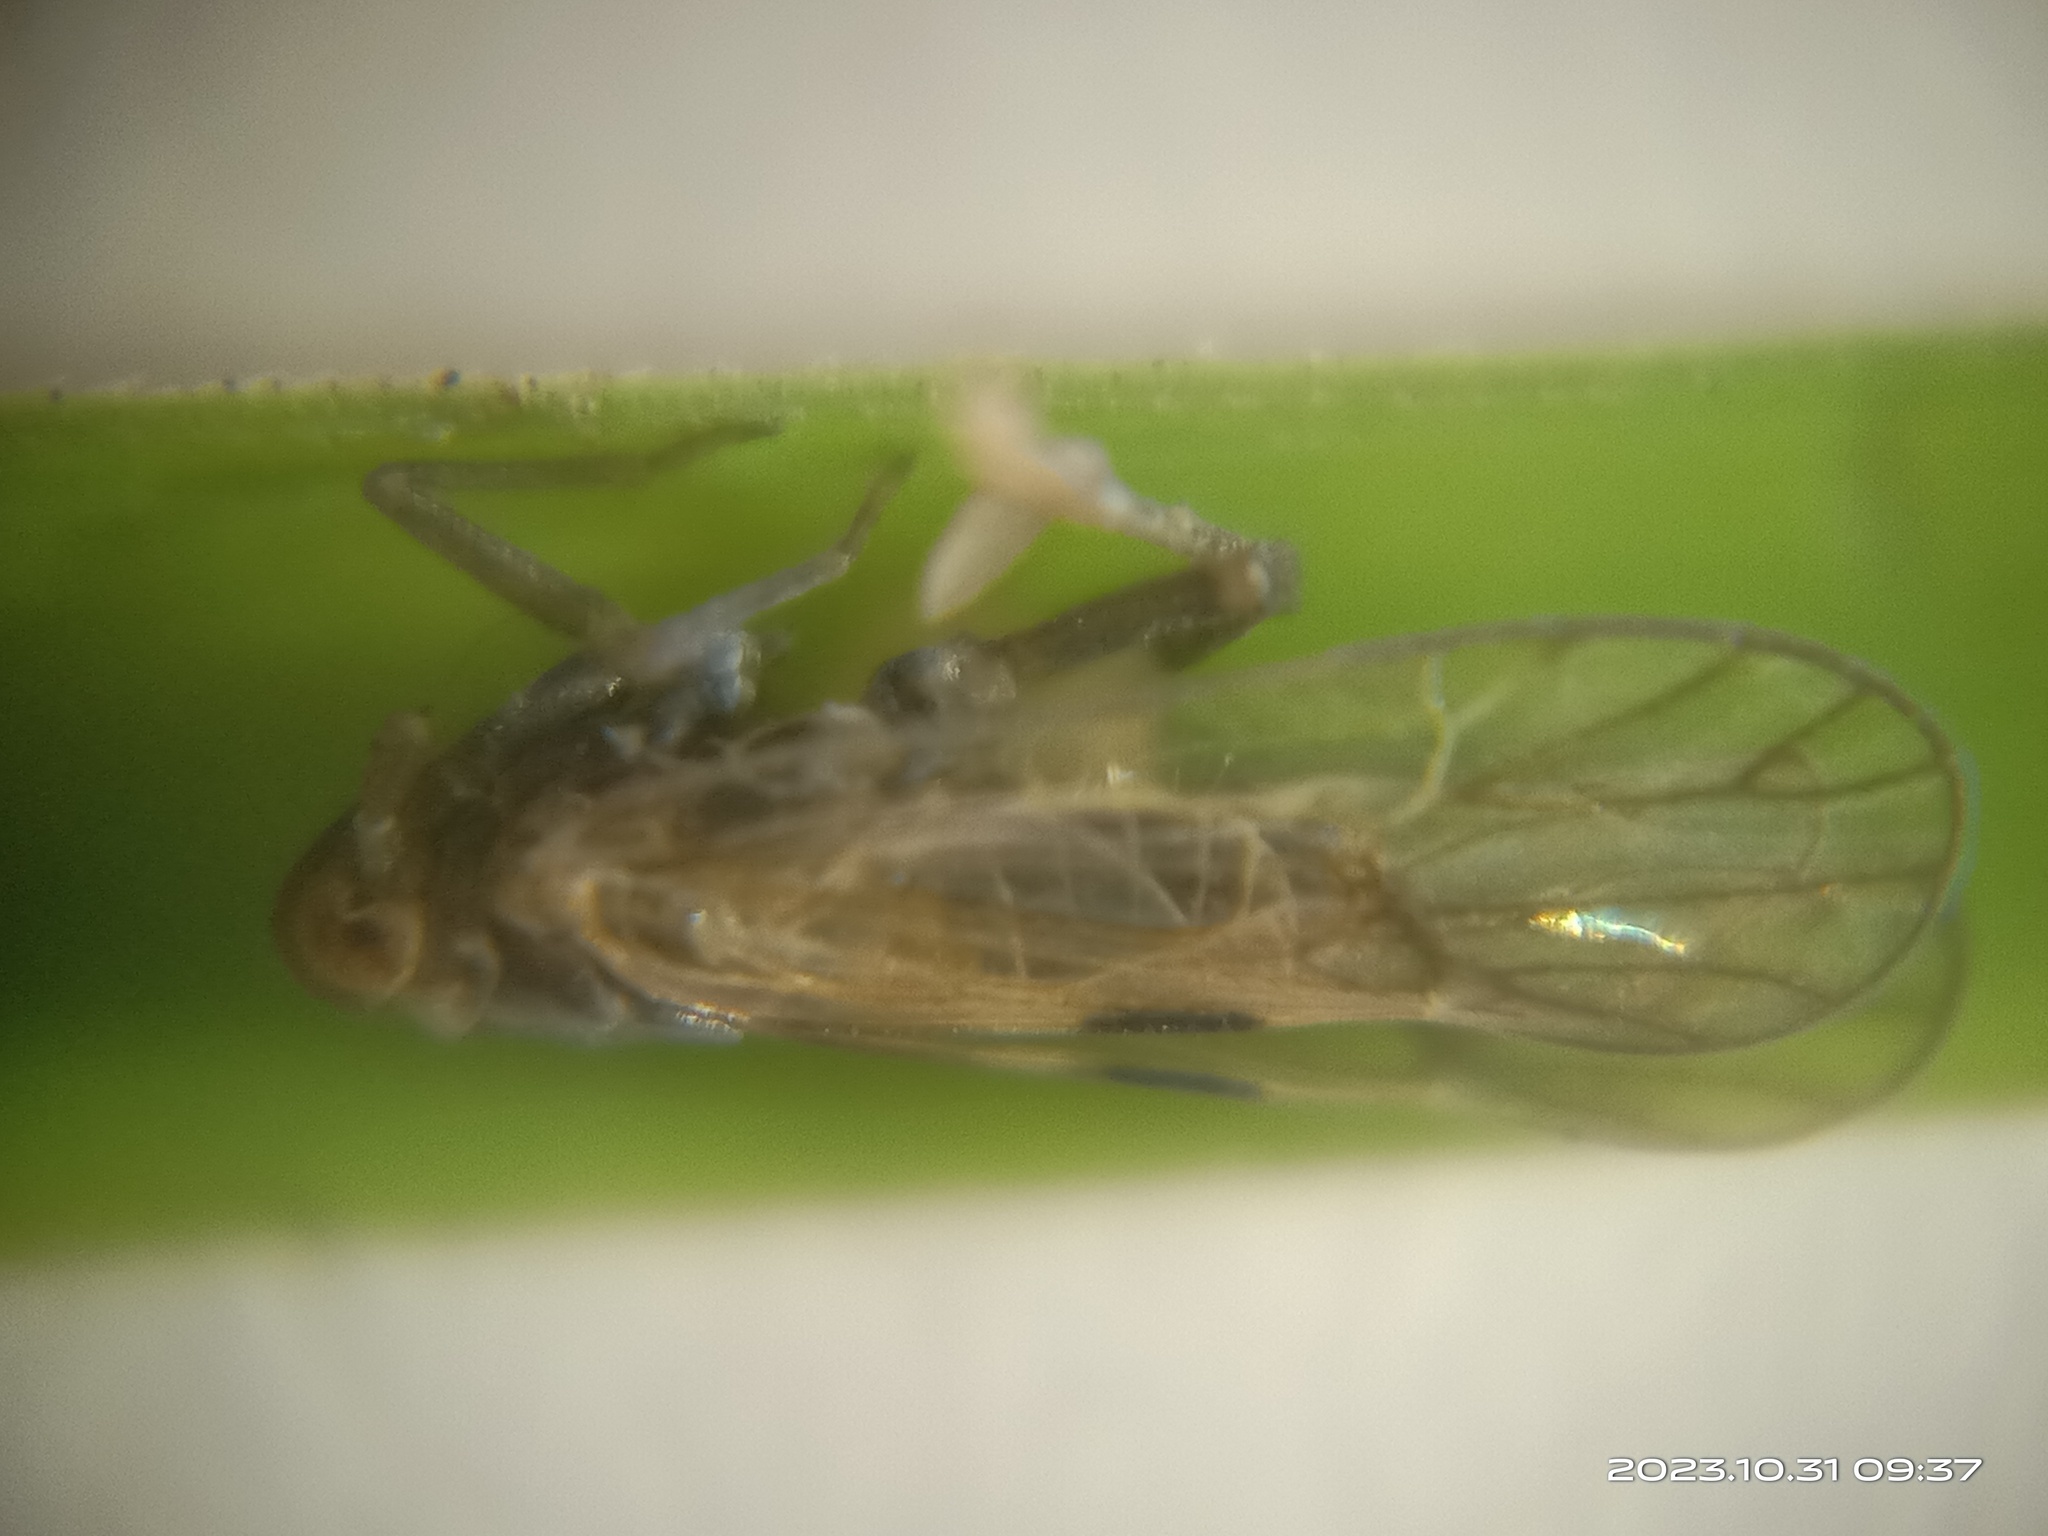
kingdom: Animalia
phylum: Arthropoda
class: Insecta
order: Hemiptera
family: Delphacidae
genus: Nilaparvata
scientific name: Nilaparvata lugens
